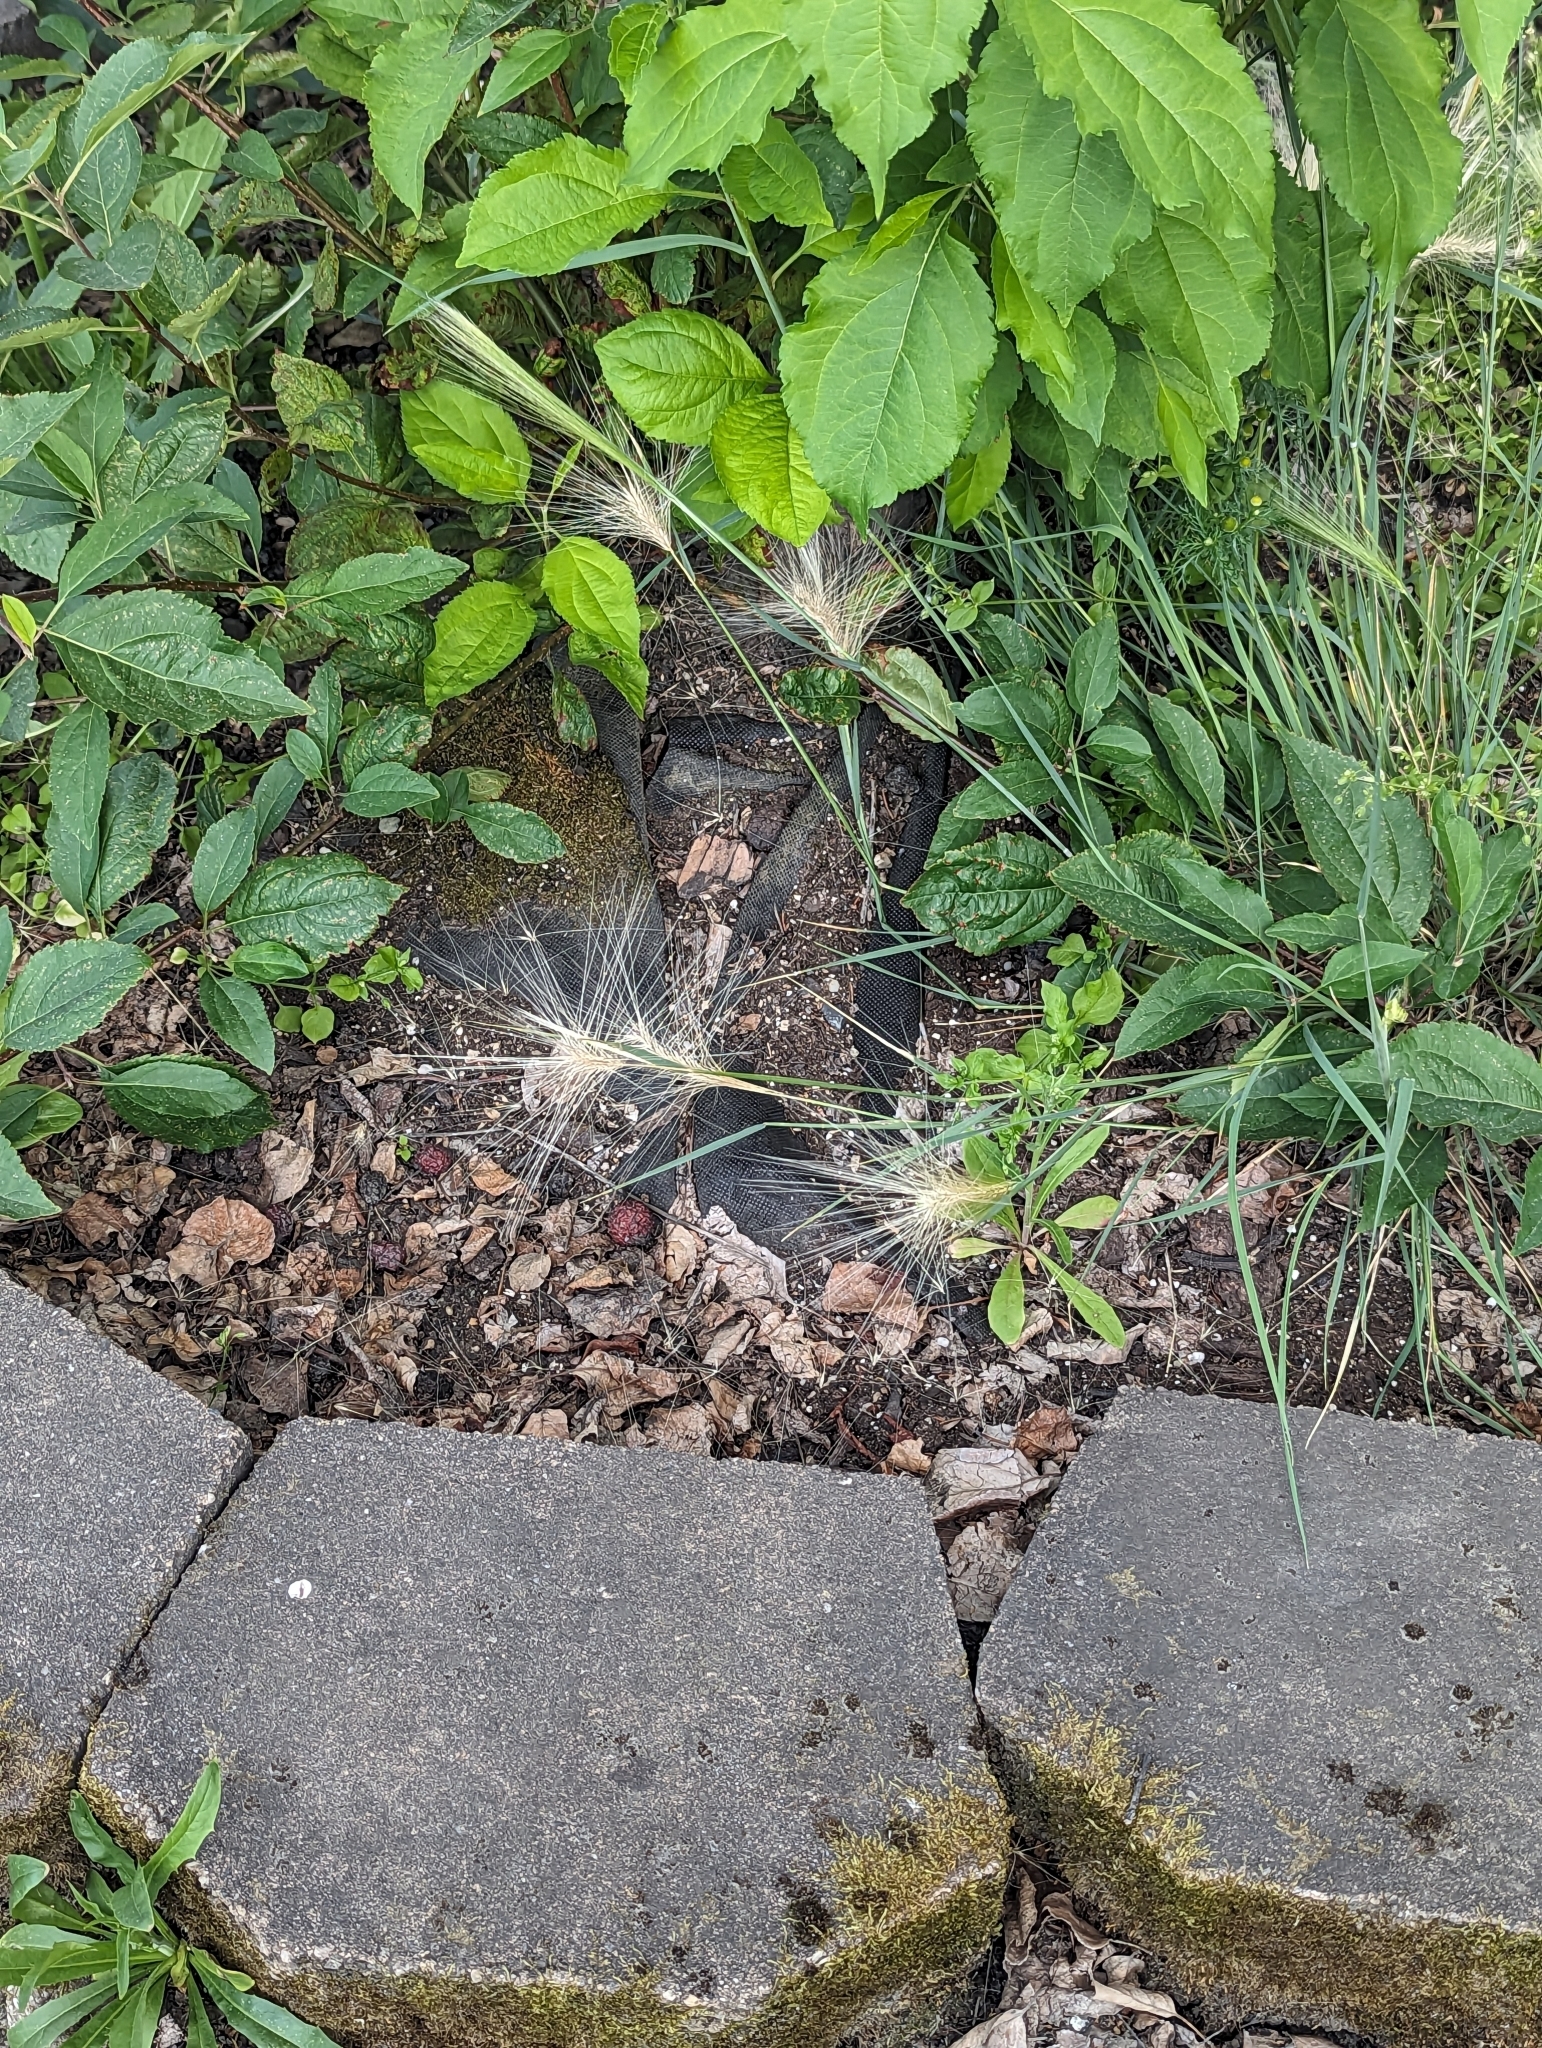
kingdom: Plantae
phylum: Tracheophyta
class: Liliopsida
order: Poales
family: Poaceae
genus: Hordeum
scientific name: Hordeum jubatum
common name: Foxtail barley
